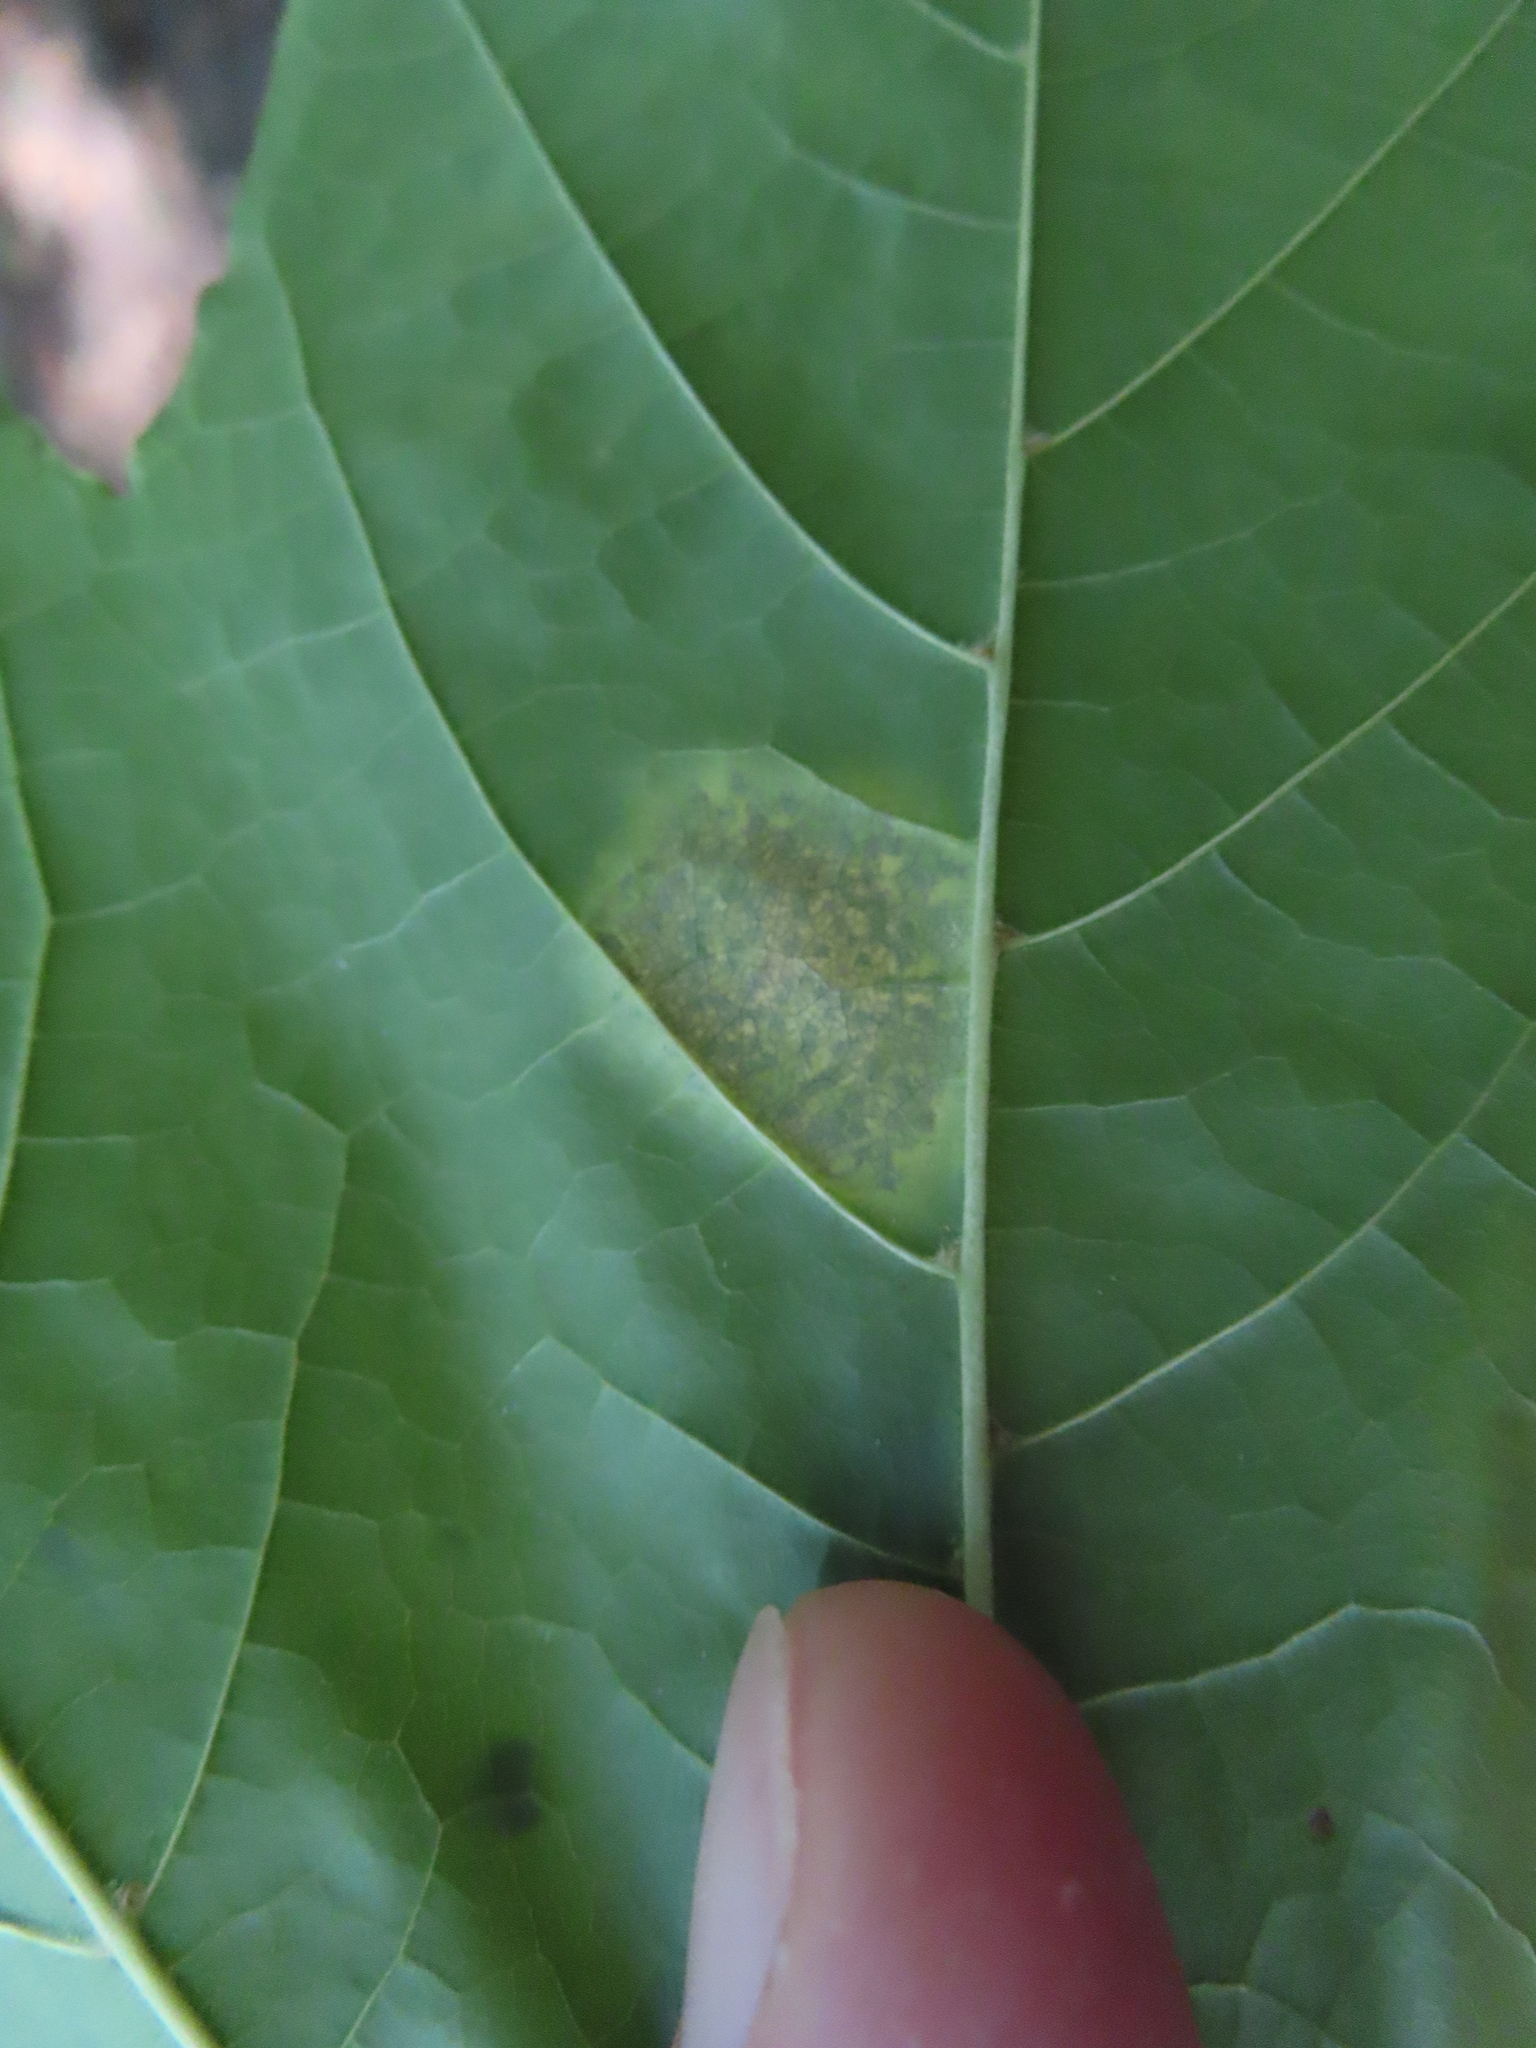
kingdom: Fungi
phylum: Ascomycota
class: Leotiomycetes
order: Rhytismatales
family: Rhytismataceae
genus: Rhytisma
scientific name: Rhytisma acerinum
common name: European tar spot
